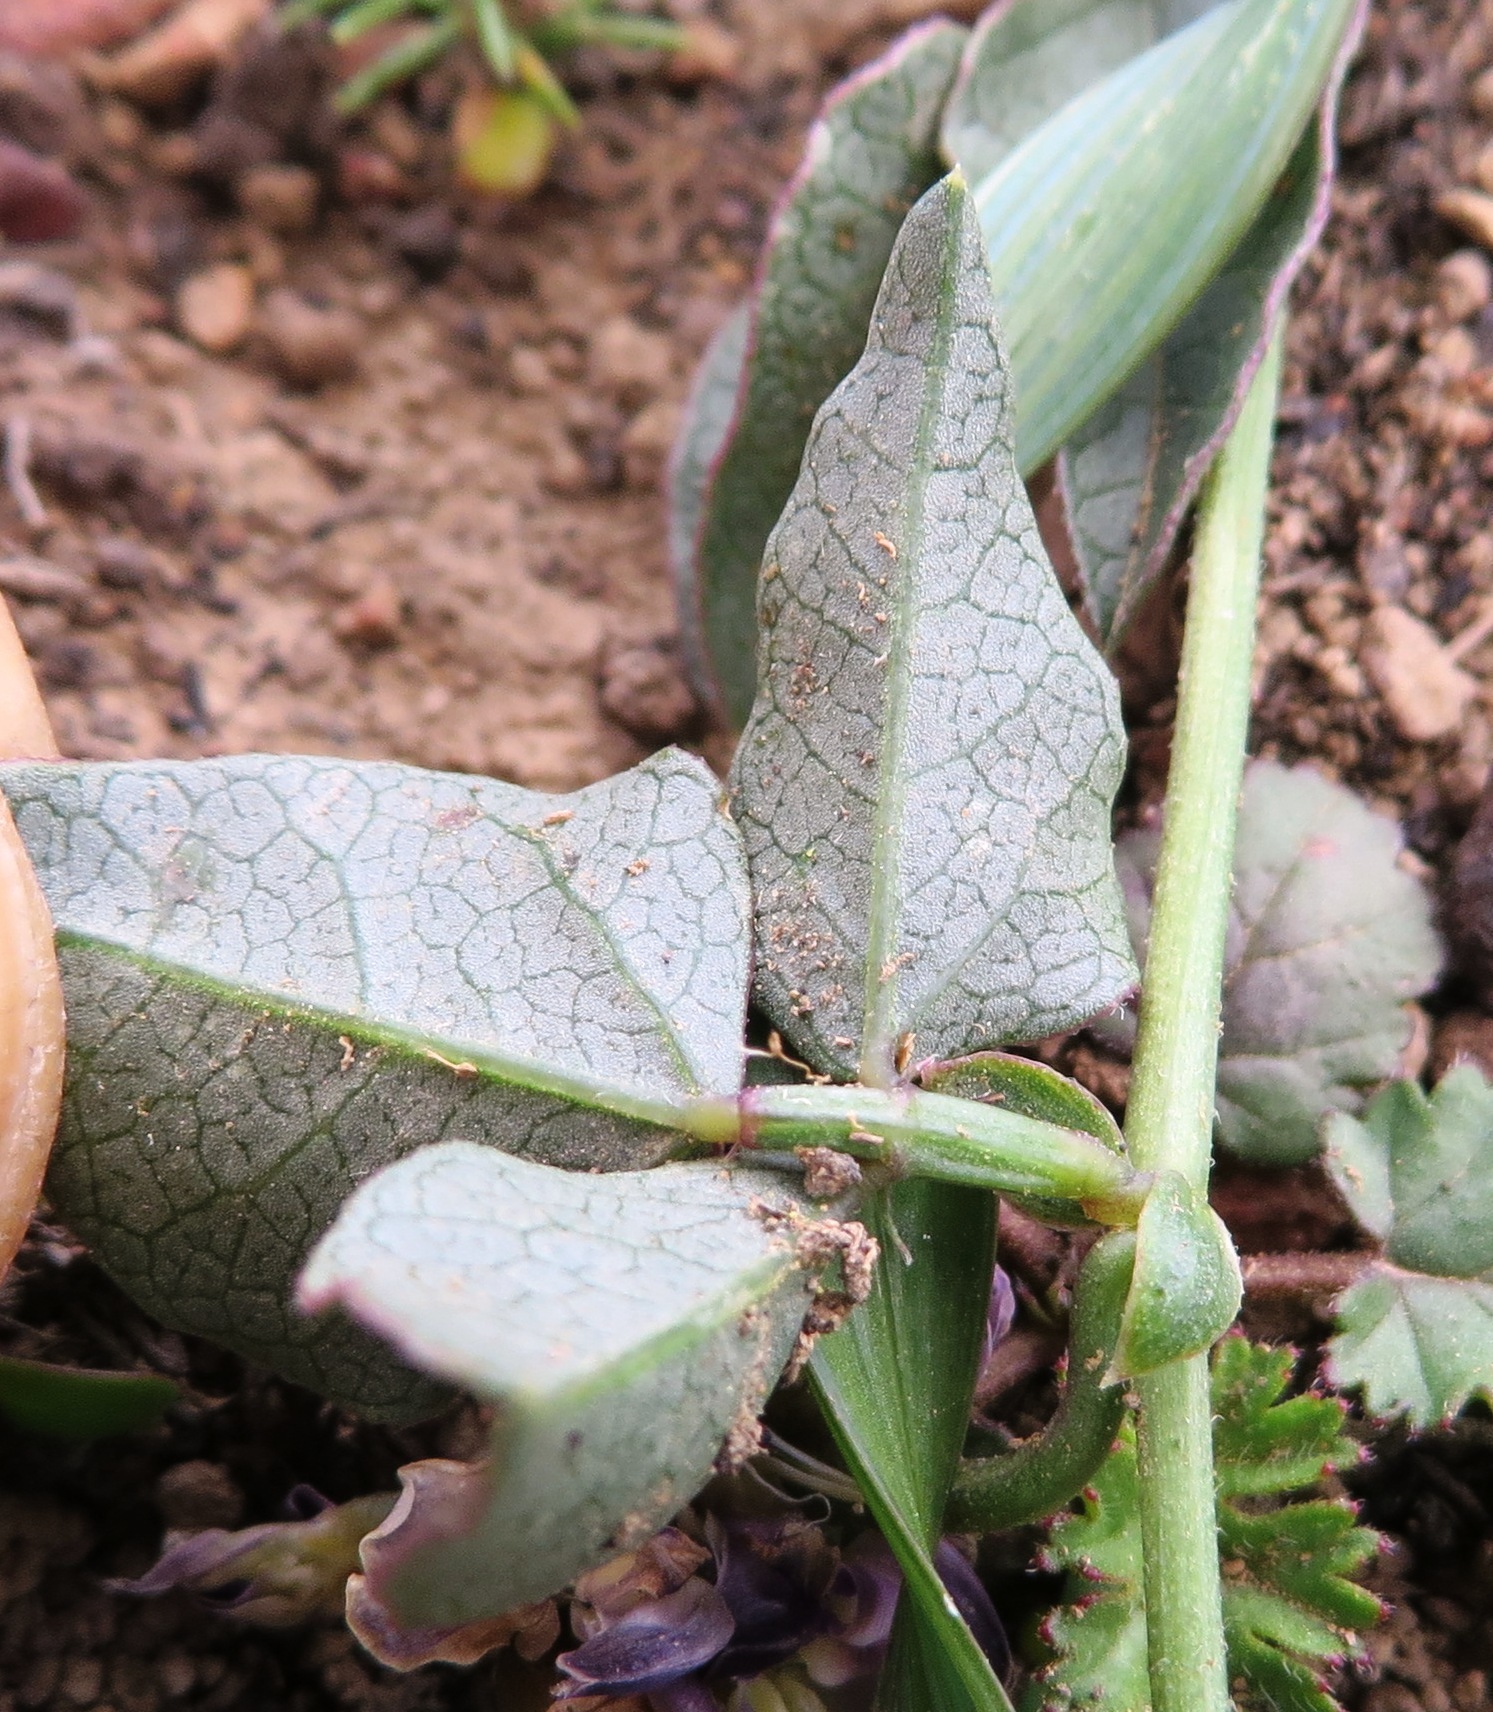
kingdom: Plantae
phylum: Tracheophyta
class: Magnoliopsida
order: Fabales
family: Fabaceae
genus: Dolichos
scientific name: Dolichos decumbens
